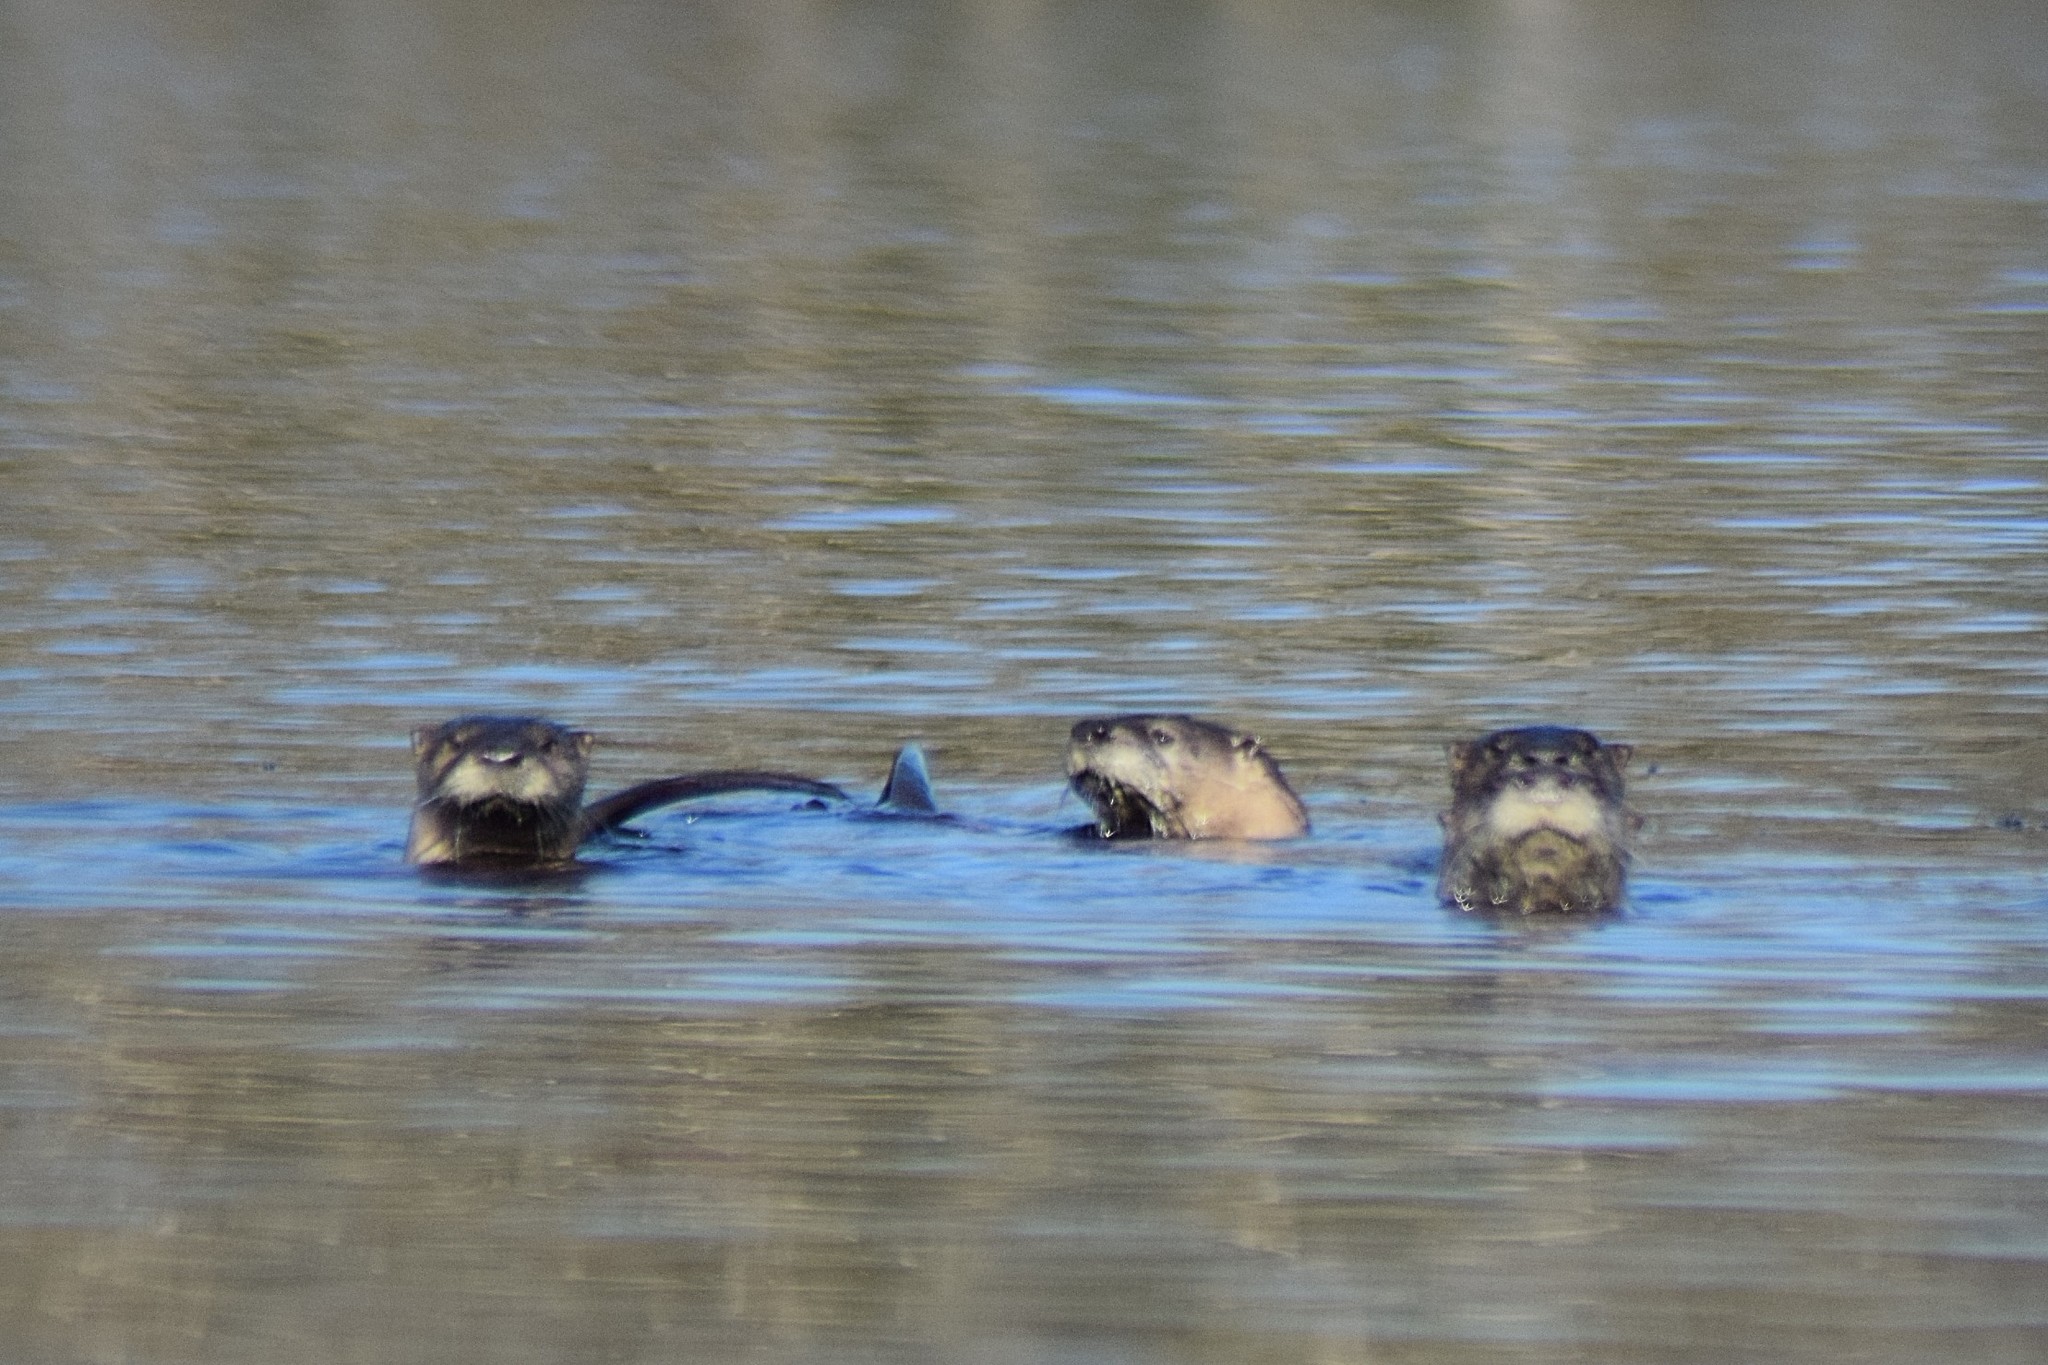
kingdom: Animalia
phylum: Chordata
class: Mammalia
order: Carnivora
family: Mustelidae
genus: Lontra
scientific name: Lontra canadensis
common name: North american river otter
